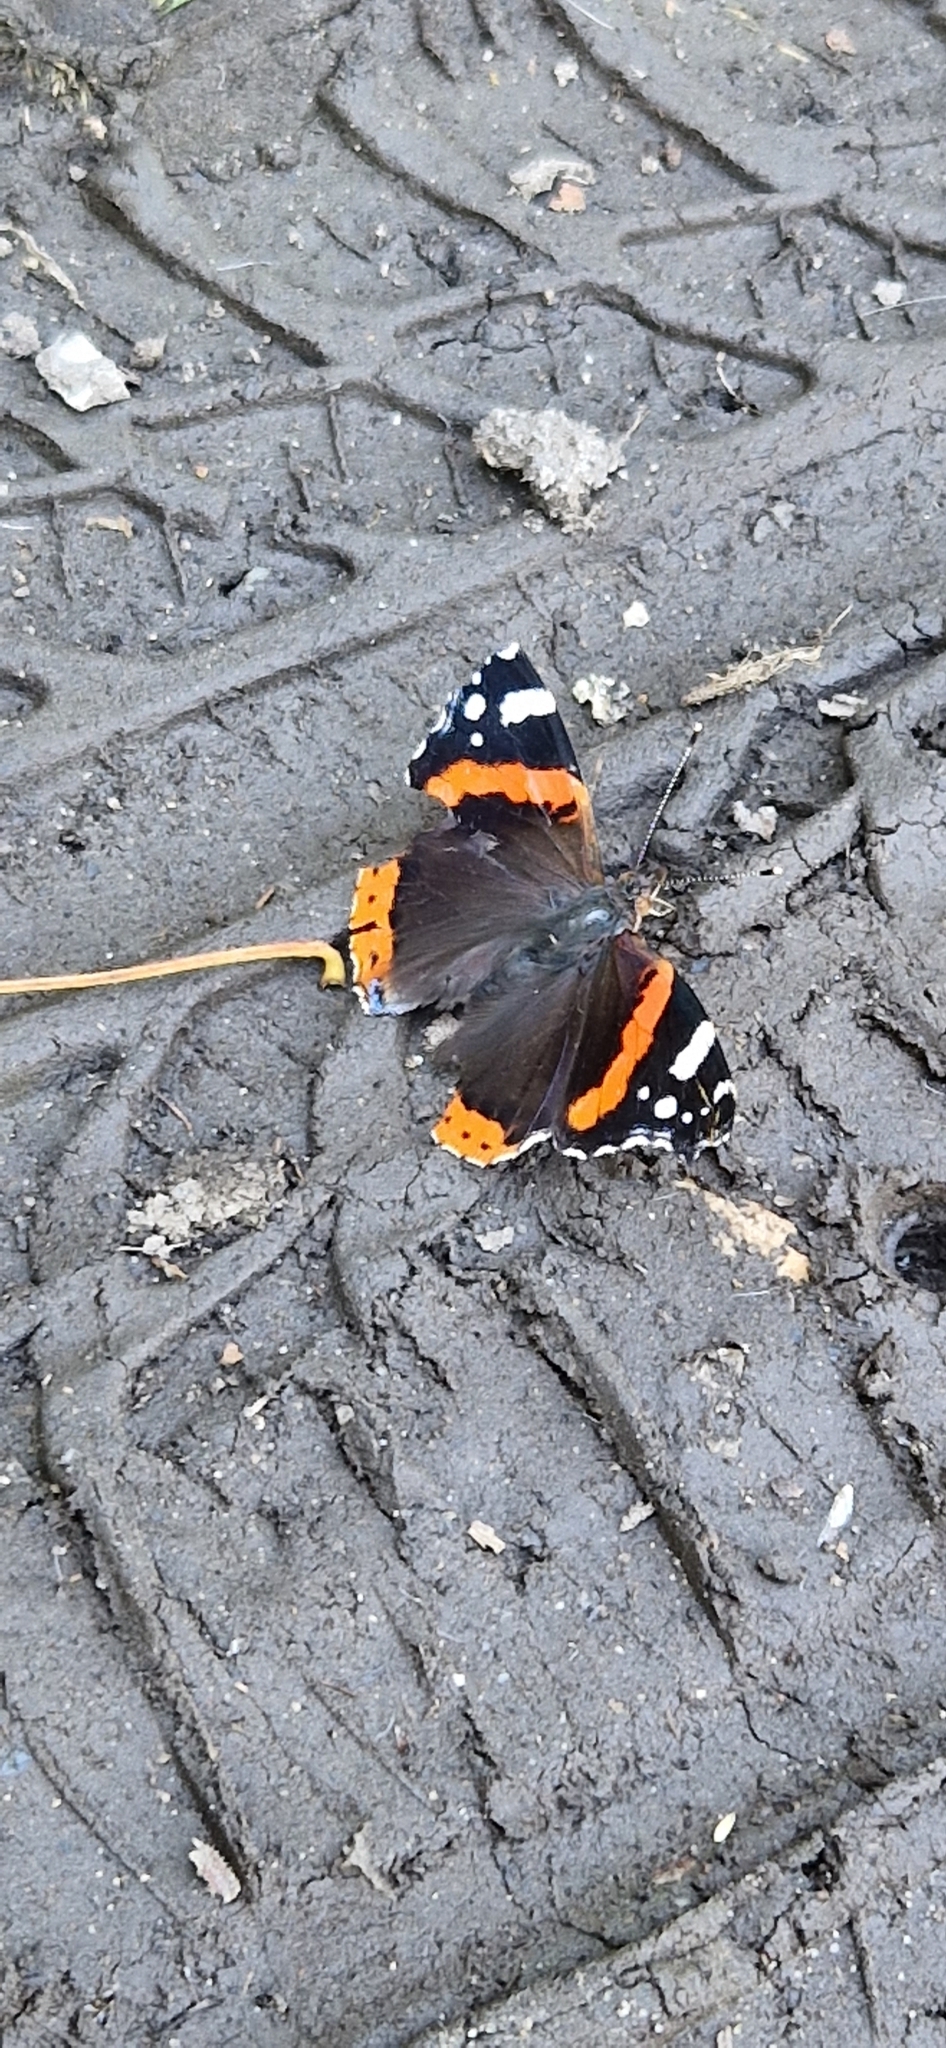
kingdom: Animalia
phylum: Arthropoda
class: Insecta
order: Lepidoptera
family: Nymphalidae
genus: Vanessa
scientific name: Vanessa atalanta
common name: Red admiral
